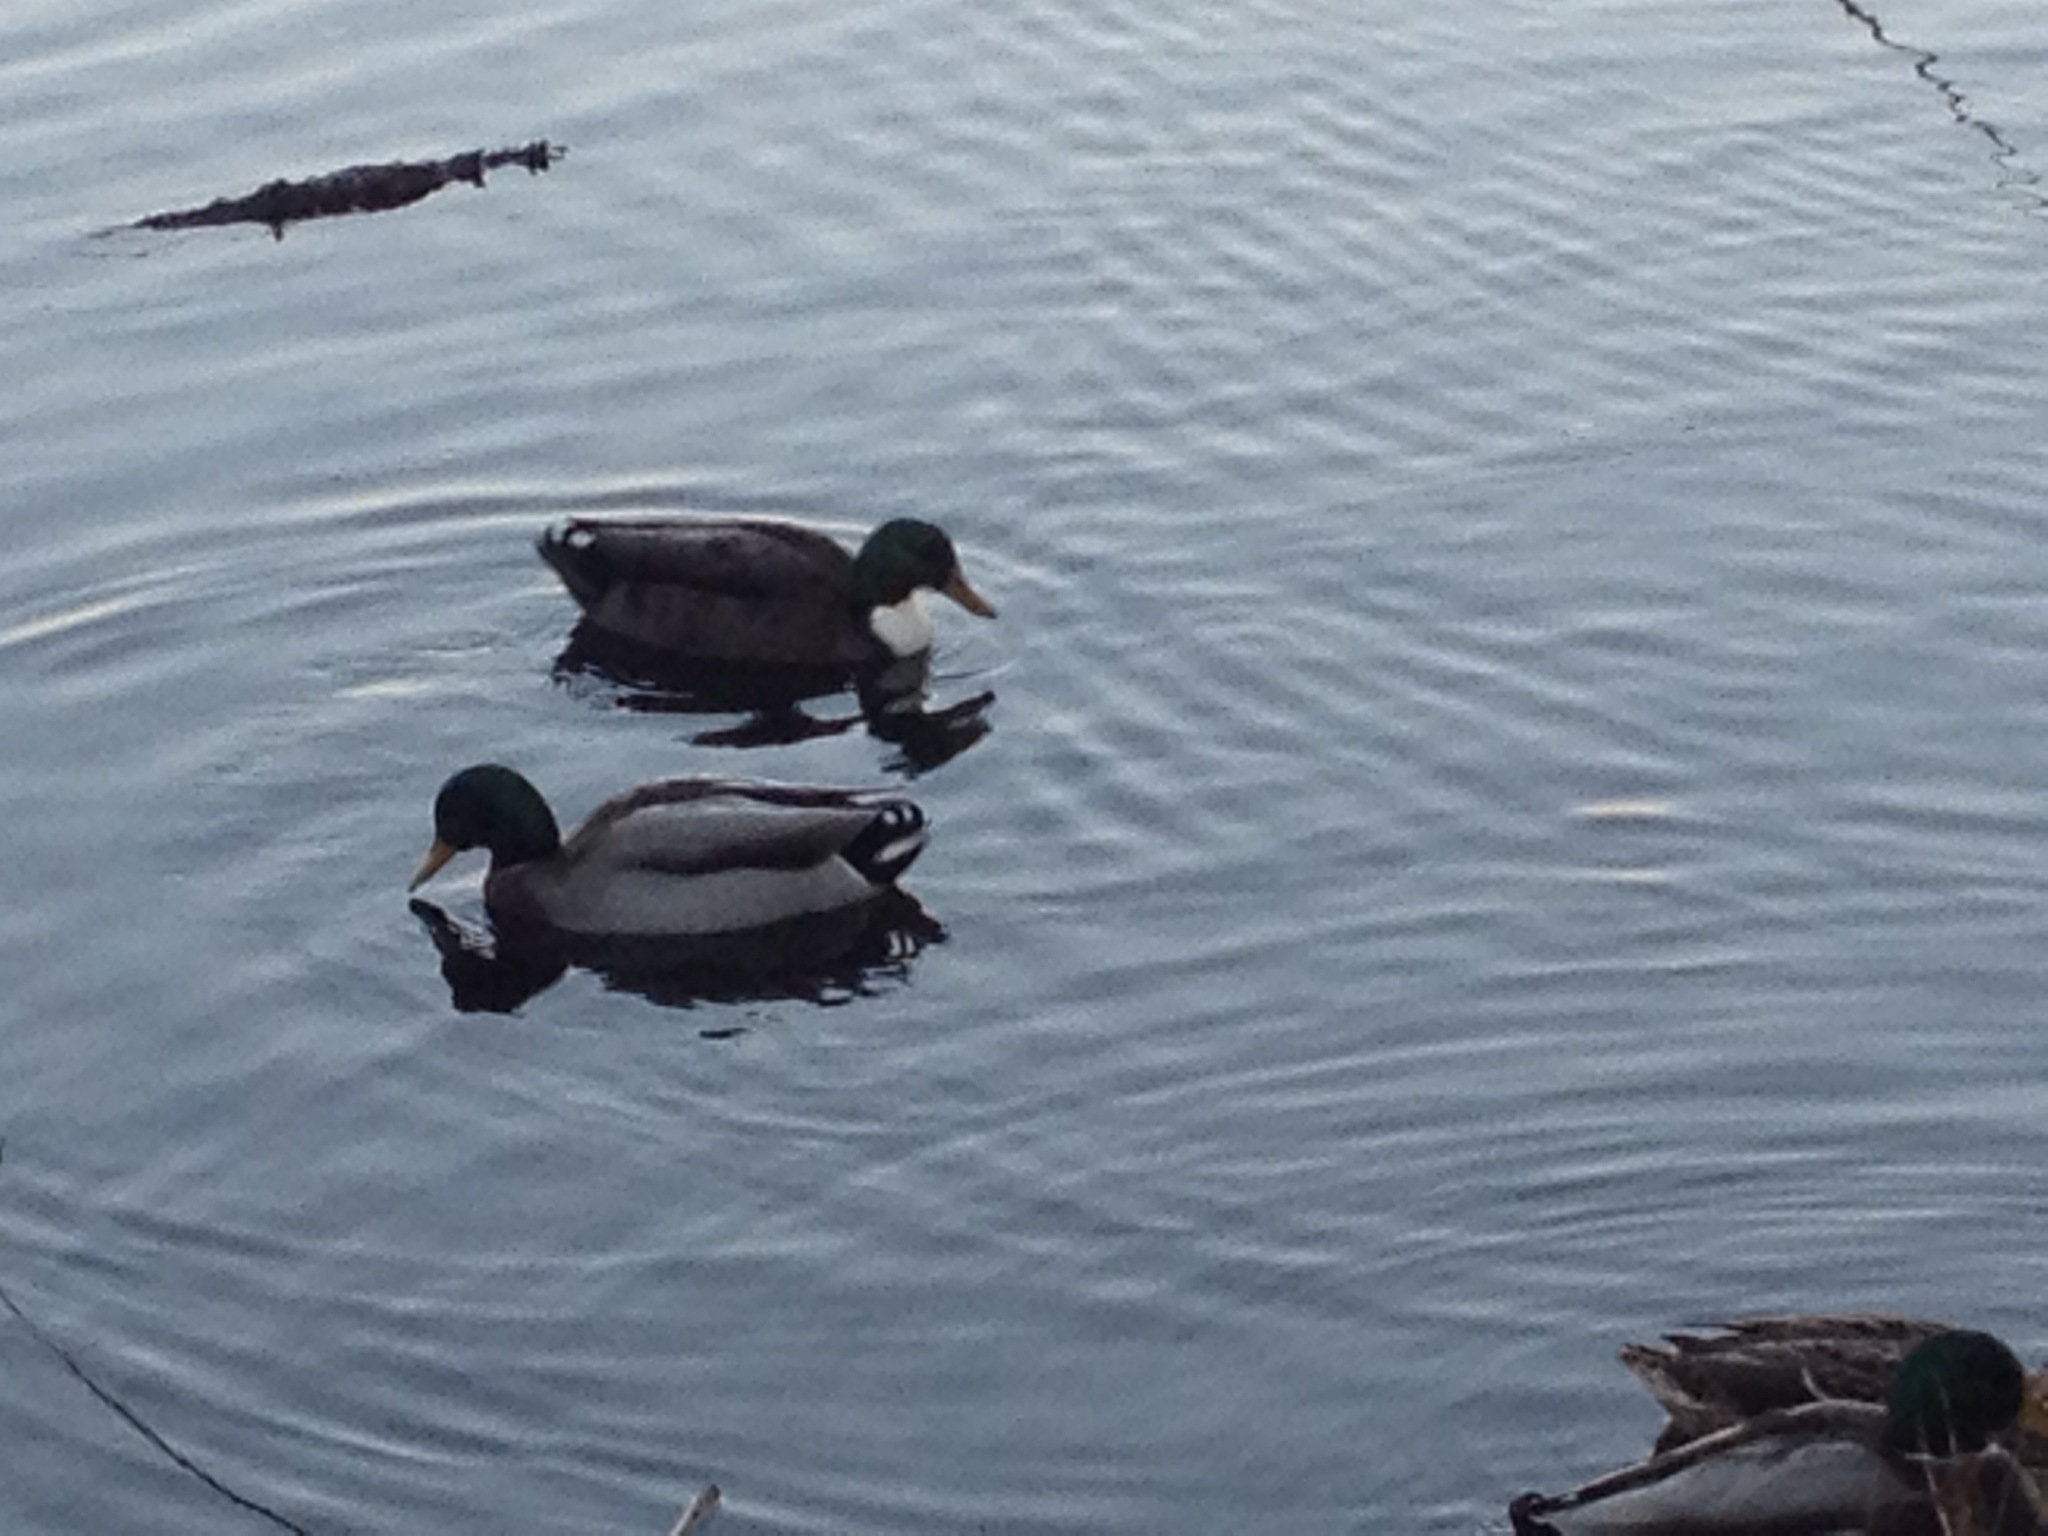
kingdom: Animalia
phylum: Chordata
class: Aves
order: Anseriformes
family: Anatidae
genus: Anas
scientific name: Anas platyrhynchos
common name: Mallard
